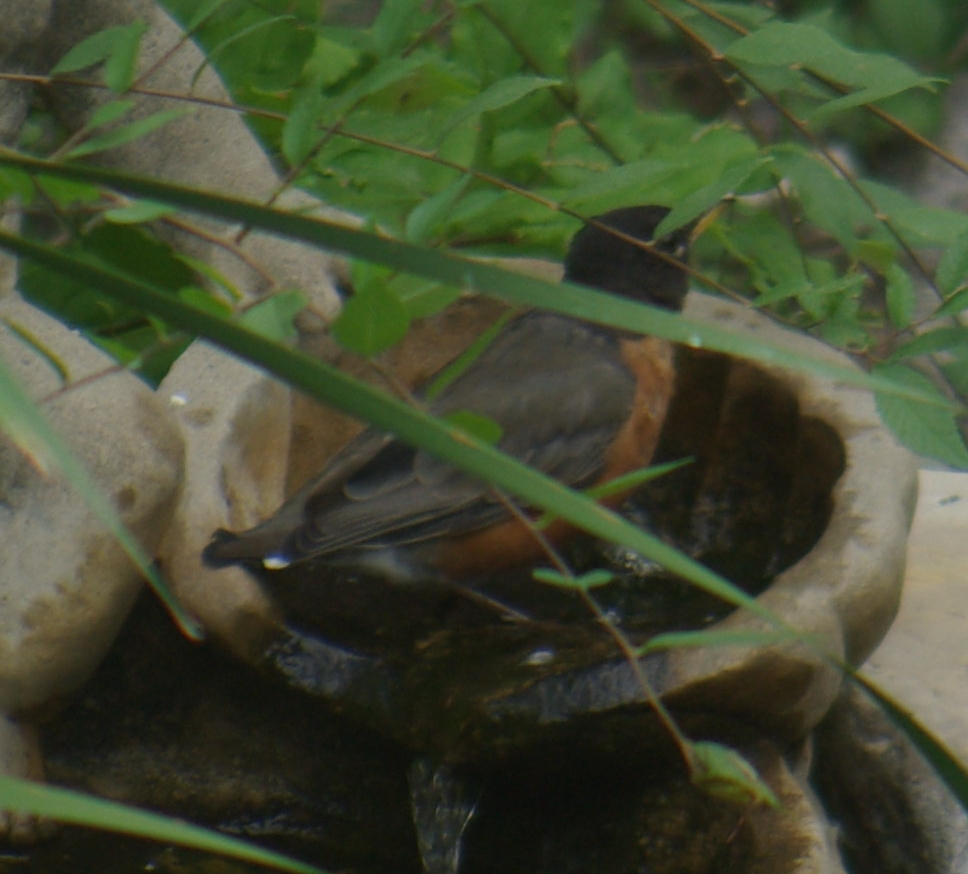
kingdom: Animalia
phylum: Chordata
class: Aves
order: Passeriformes
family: Turdidae
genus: Turdus
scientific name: Turdus migratorius
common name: American robin
